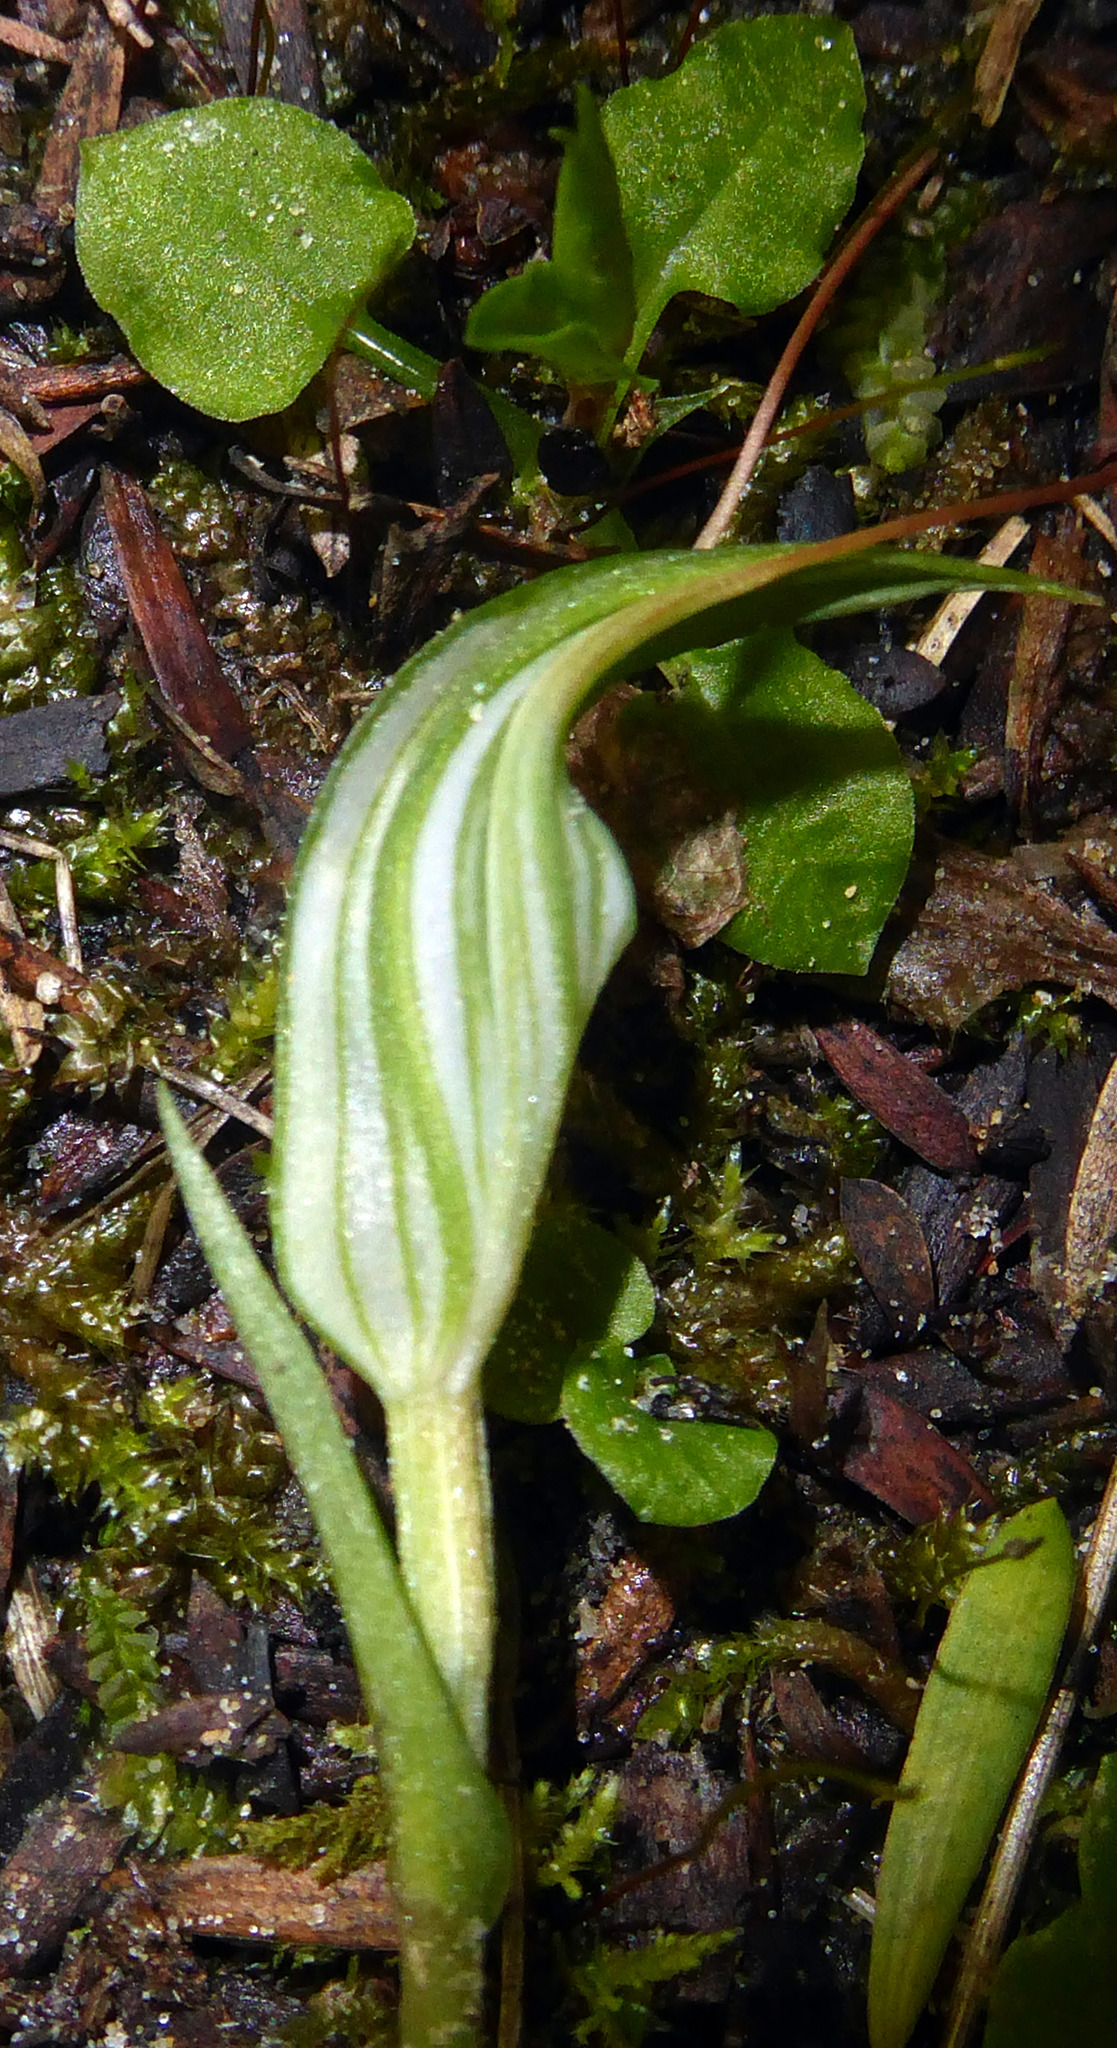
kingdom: Plantae
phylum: Tracheophyta
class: Liliopsida
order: Asparagales
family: Orchidaceae
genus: Pterostylis
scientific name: Pterostylis alobula
